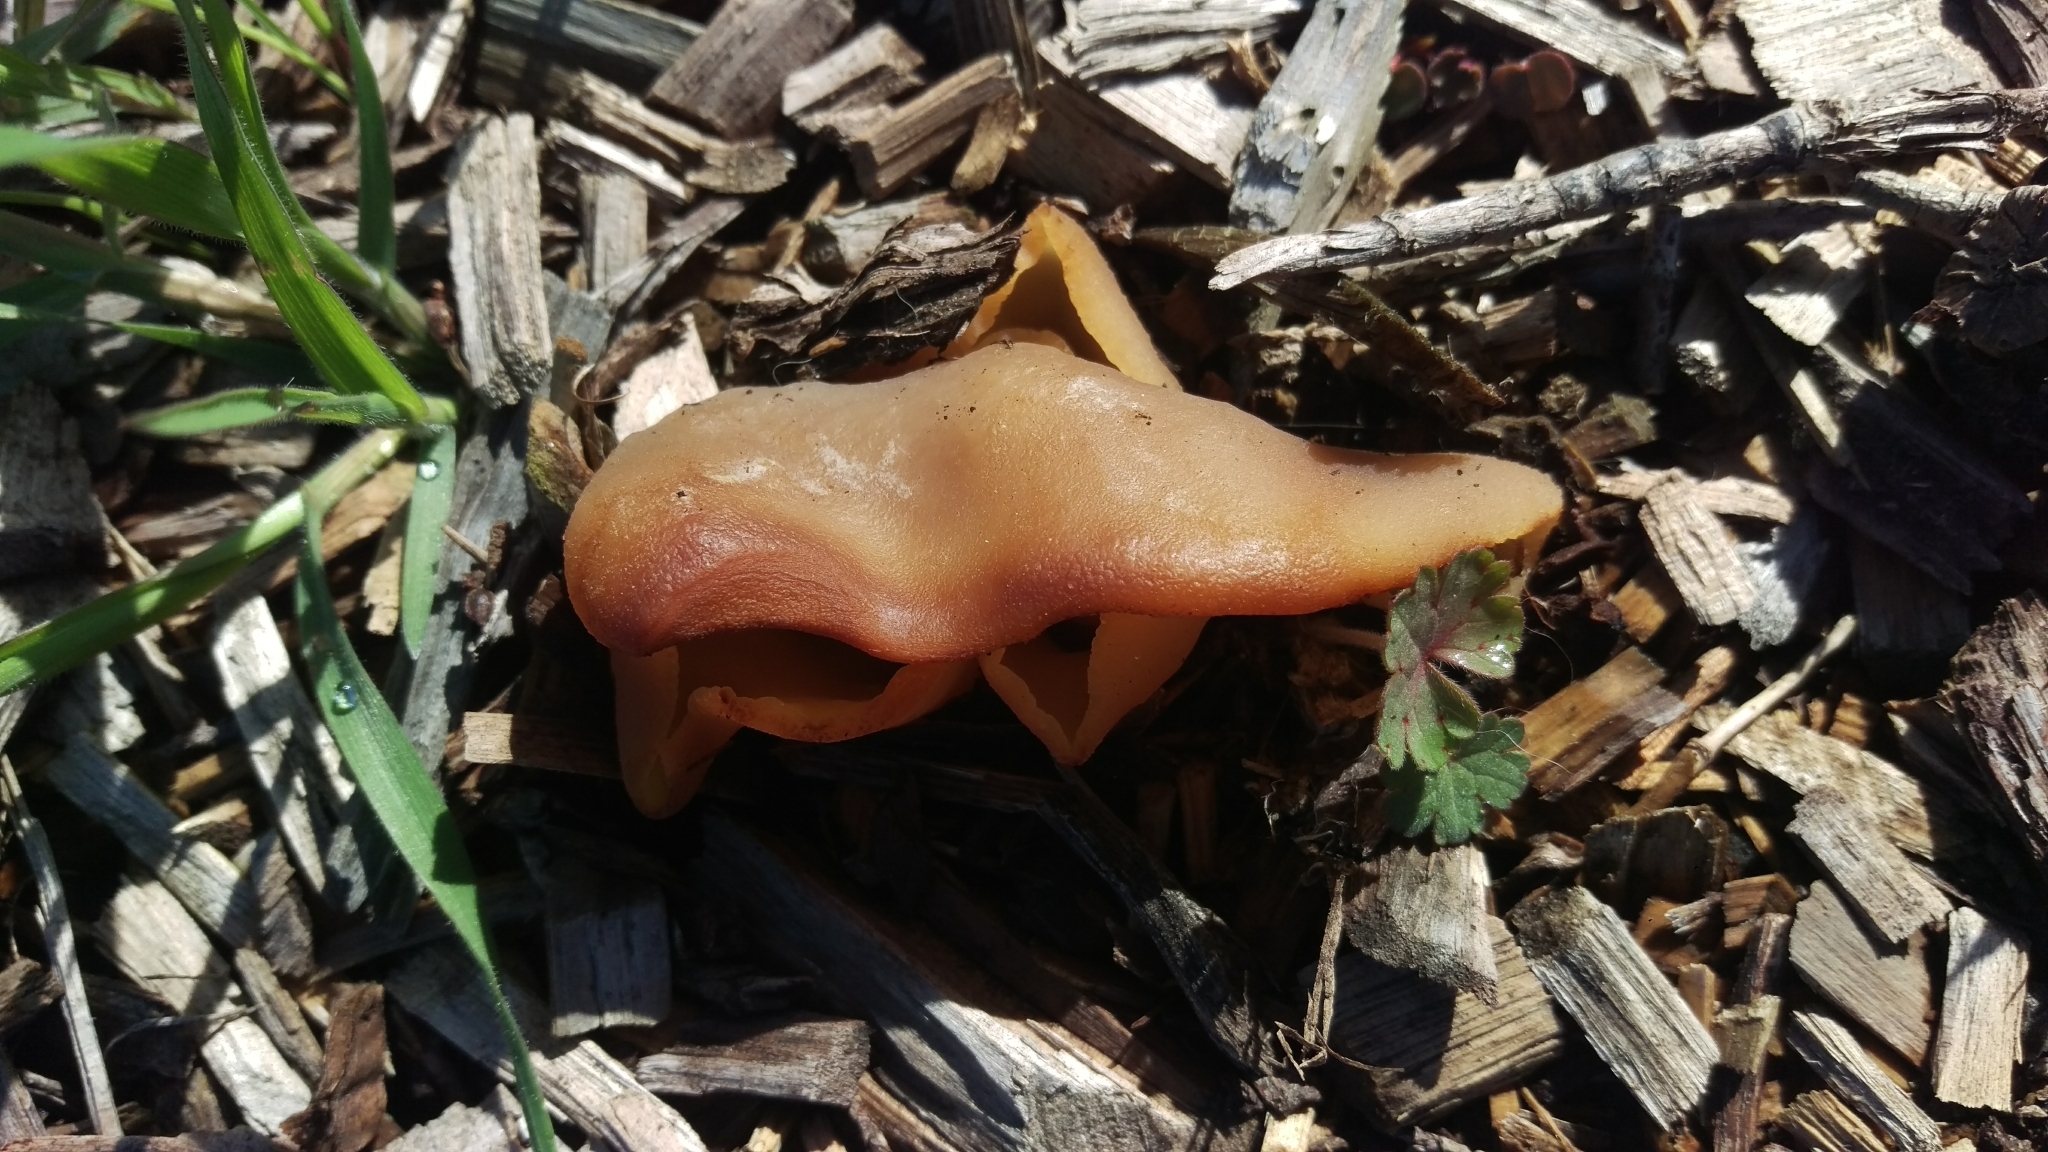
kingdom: Fungi
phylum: Ascomycota
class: Pezizomycetes
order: Pezizales
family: Pezizaceae
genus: Peziza
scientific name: Peziza varia
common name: Layered cup
